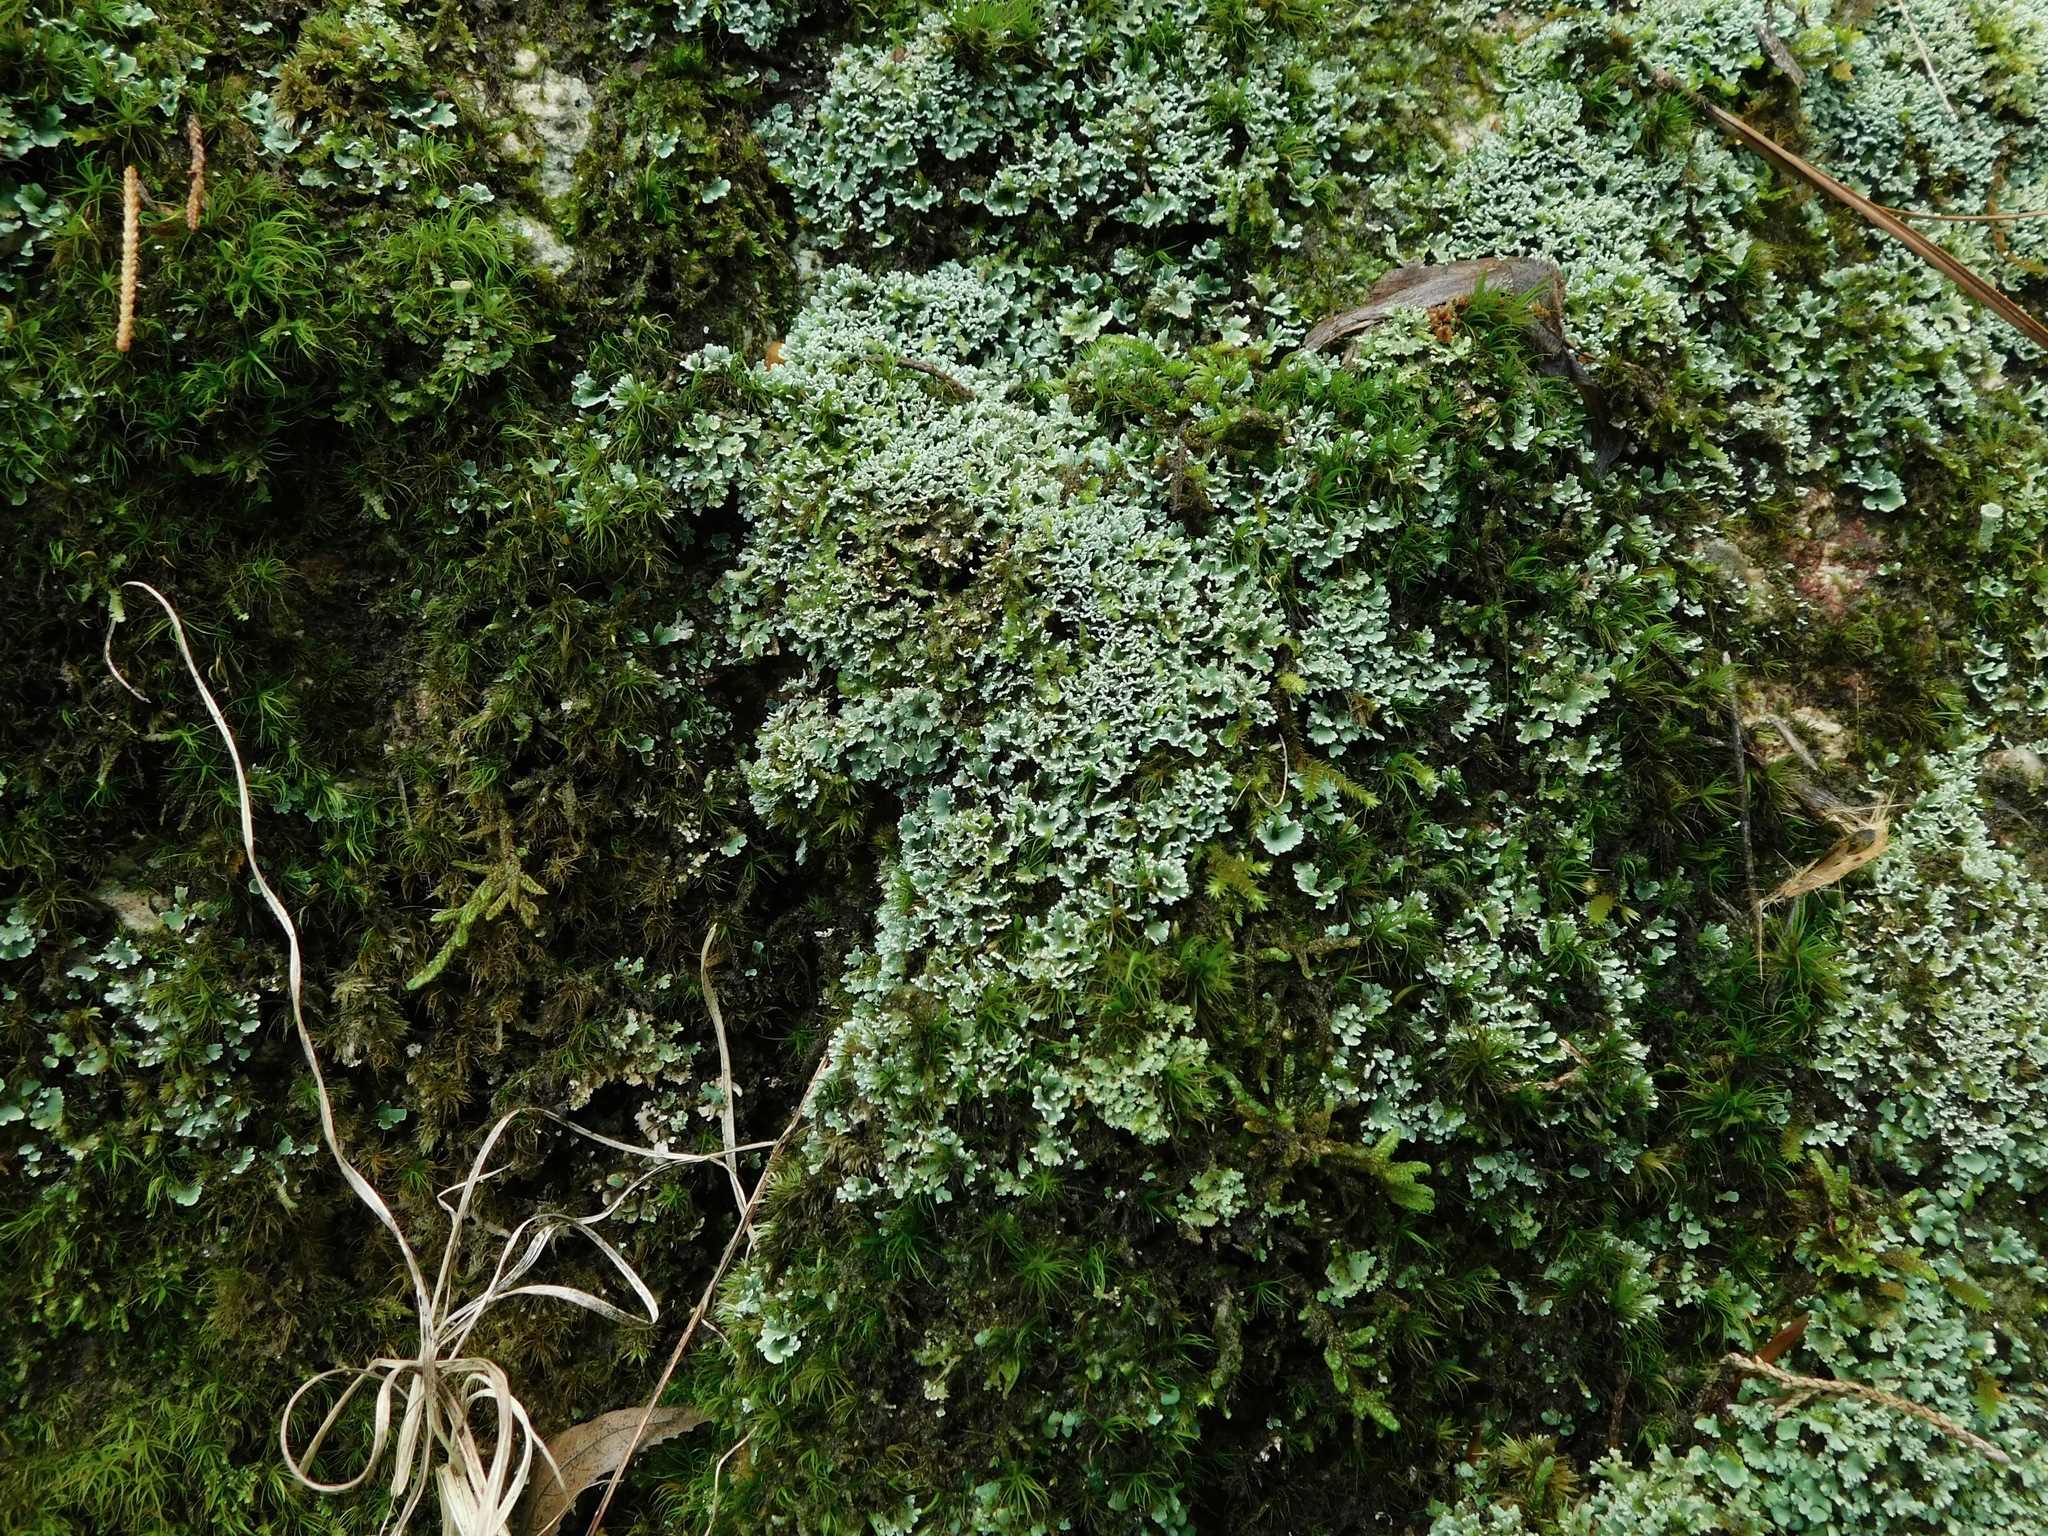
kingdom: Fungi
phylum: Ascomycota
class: Lecanoromycetes
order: Lecanorales
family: Cladoniaceae
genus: Cladonia
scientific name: Cladonia caespiticia
